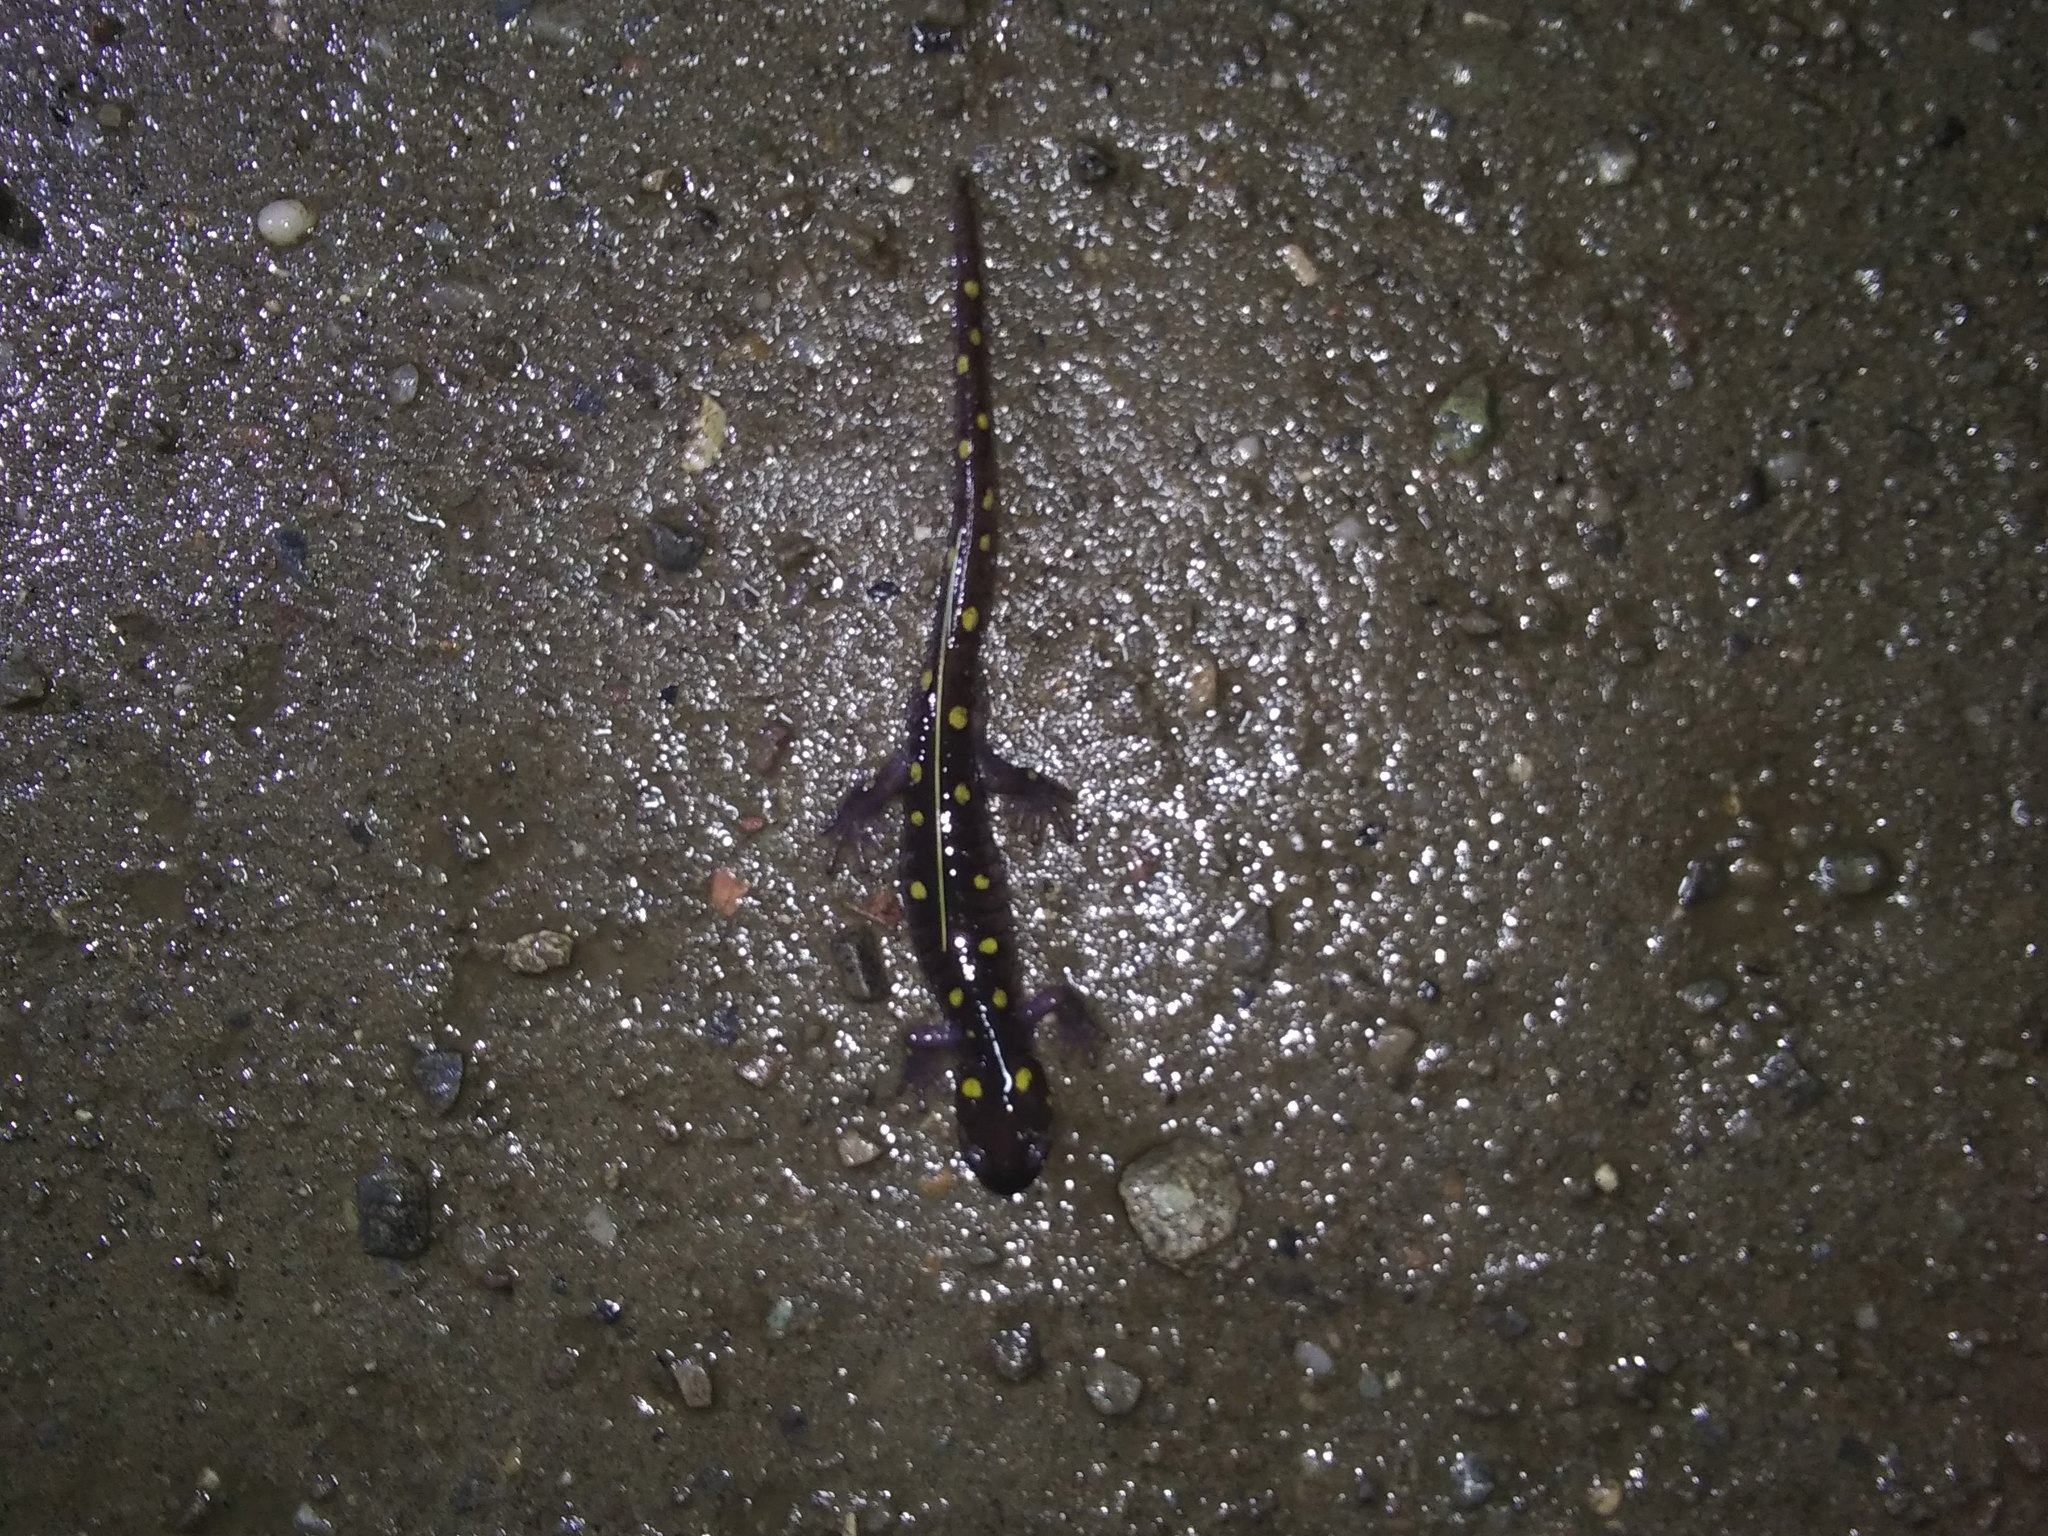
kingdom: Animalia
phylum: Chordata
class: Amphibia
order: Caudata
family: Ambystomatidae
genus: Ambystoma
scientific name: Ambystoma maculatum
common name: Spotted salamander
